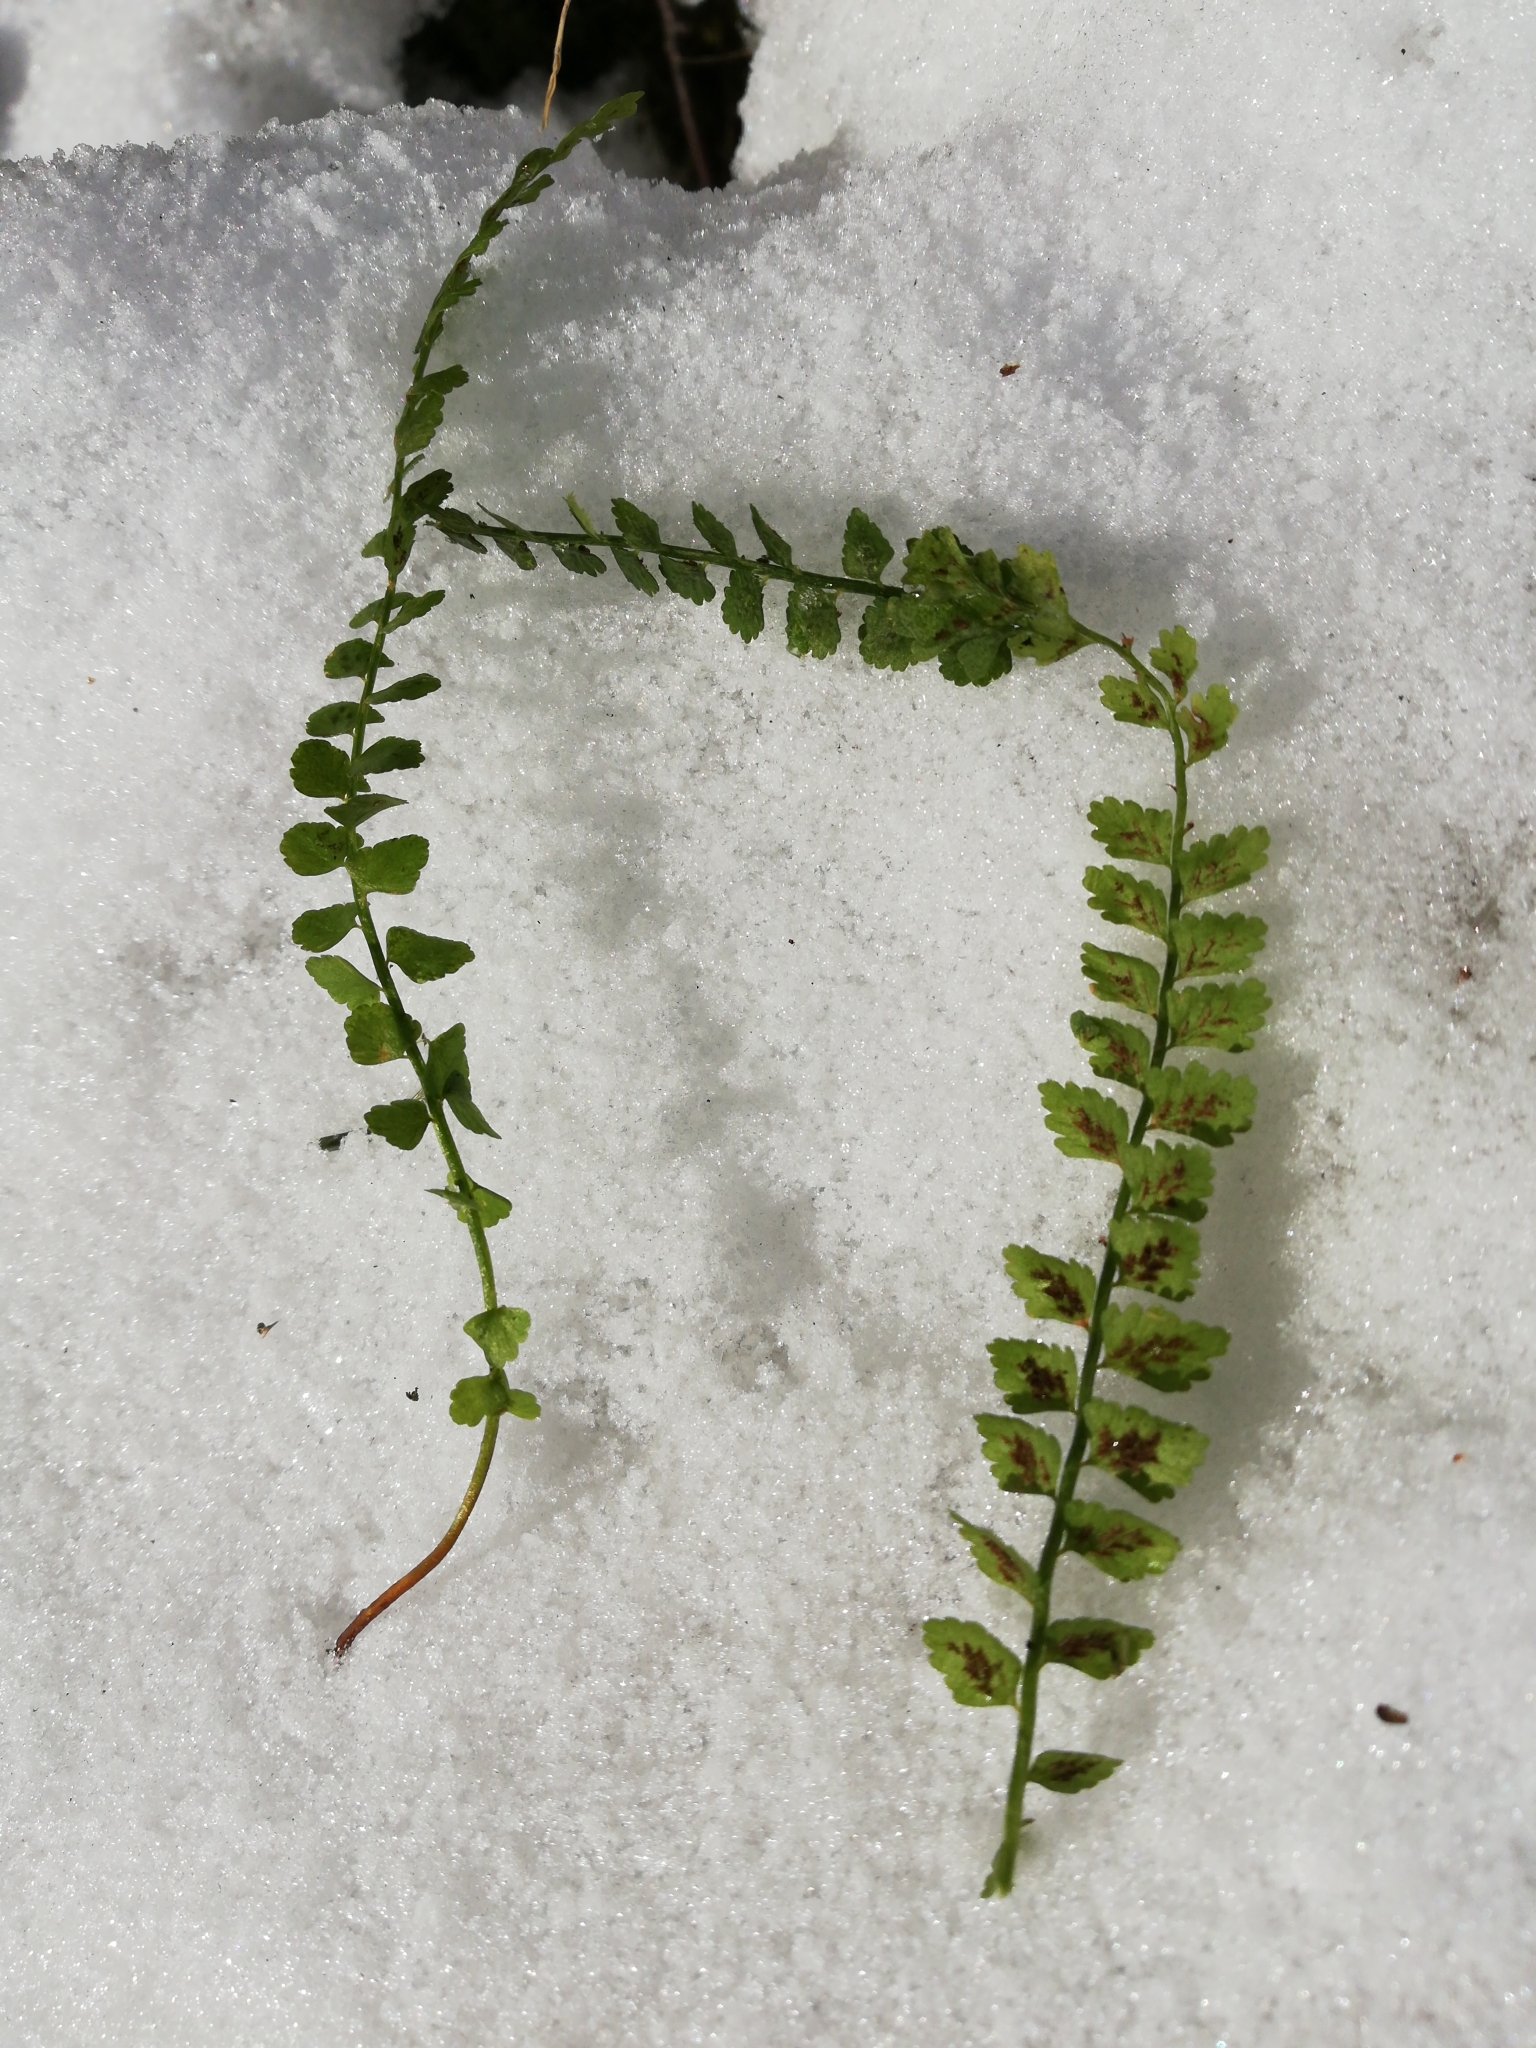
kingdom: Plantae
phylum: Tracheophyta
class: Polypodiopsida
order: Polypodiales
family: Aspleniaceae
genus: Asplenium
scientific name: Asplenium viride
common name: Green spleenwort
